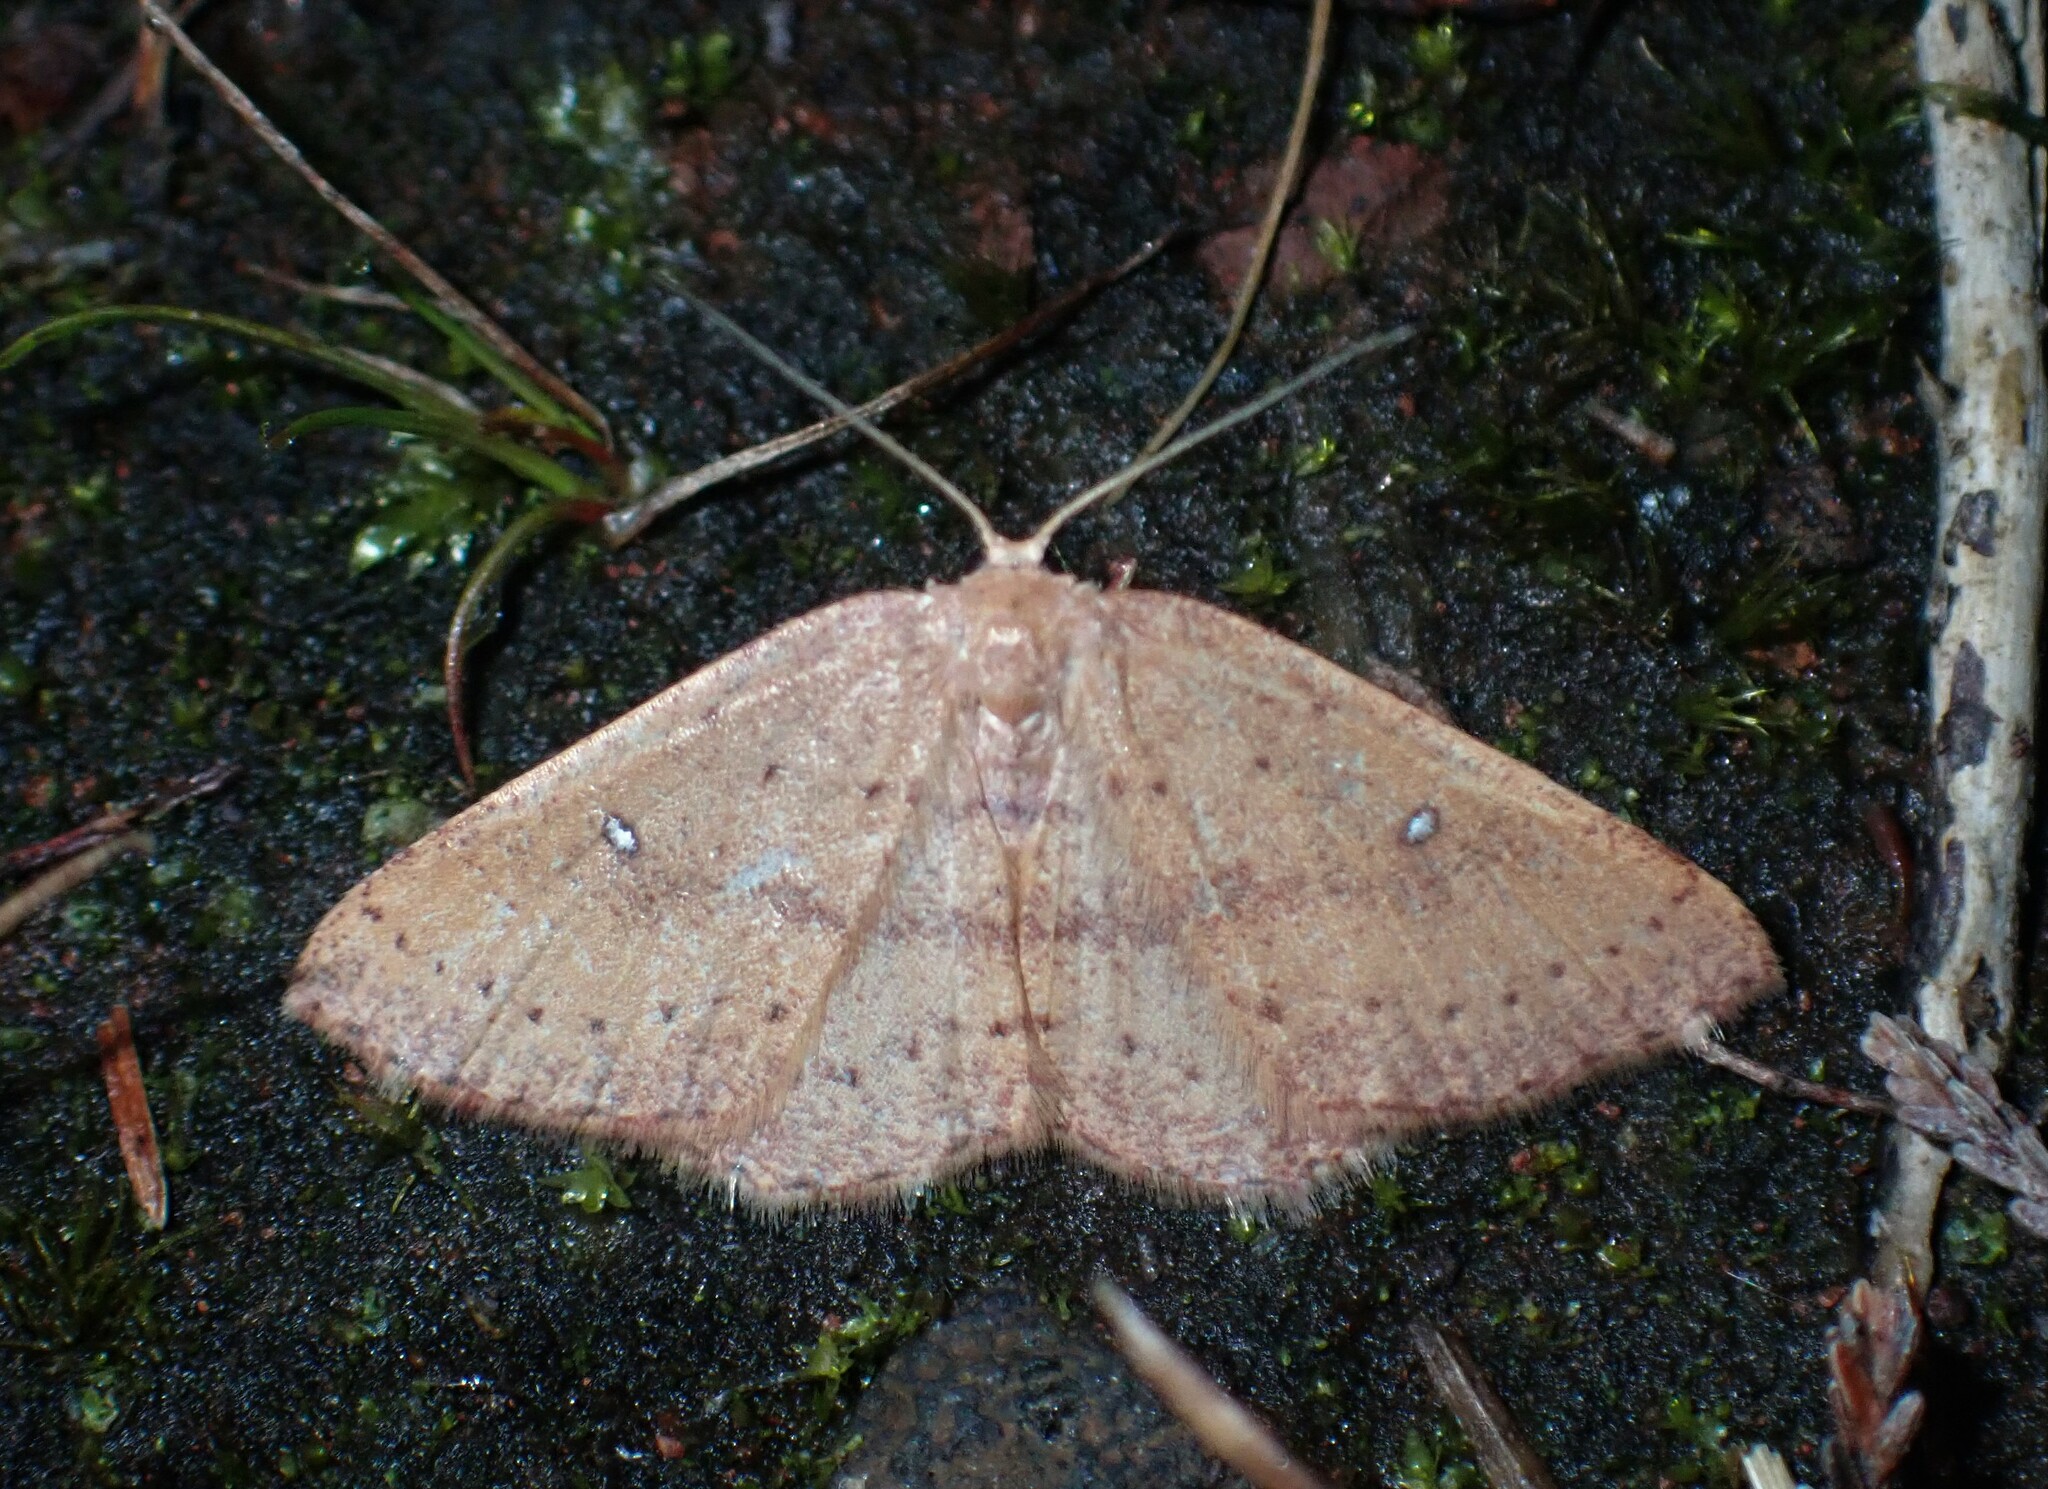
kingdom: Animalia
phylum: Arthropoda
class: Insecta
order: Lepidoptera
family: Geometridae
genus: Cyclophora
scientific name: Cyclophora azorensis
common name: Geometer moth
